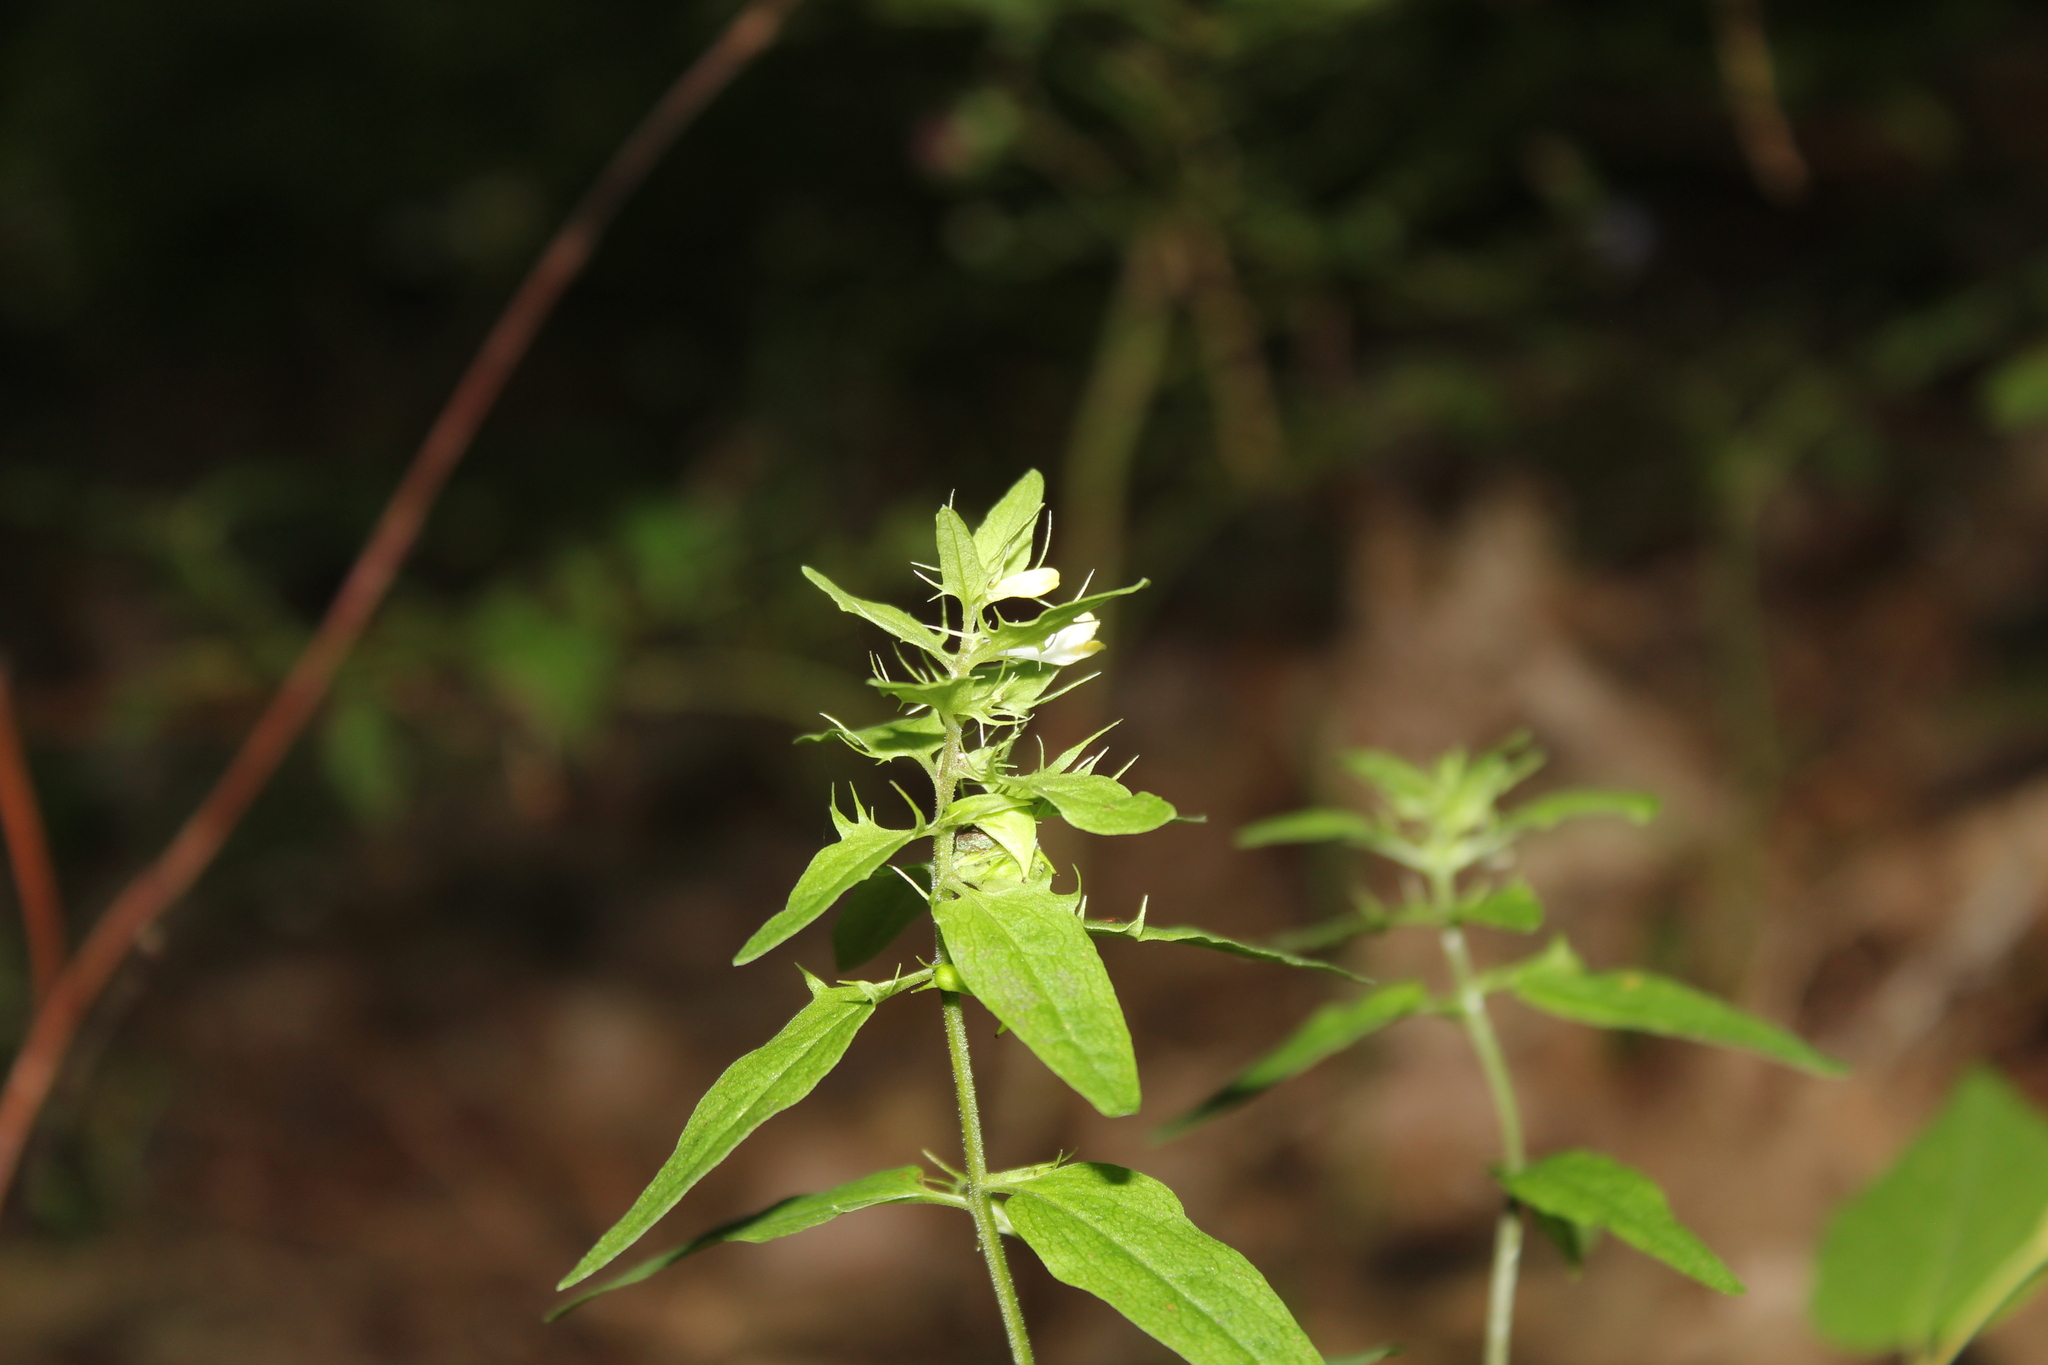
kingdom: Plantae
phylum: Tracheophyta
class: Magnoliopsida
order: Lamiales
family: Orobanchaceae
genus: Melampyrum
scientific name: Melampyrum lineare
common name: American cow-wheat
